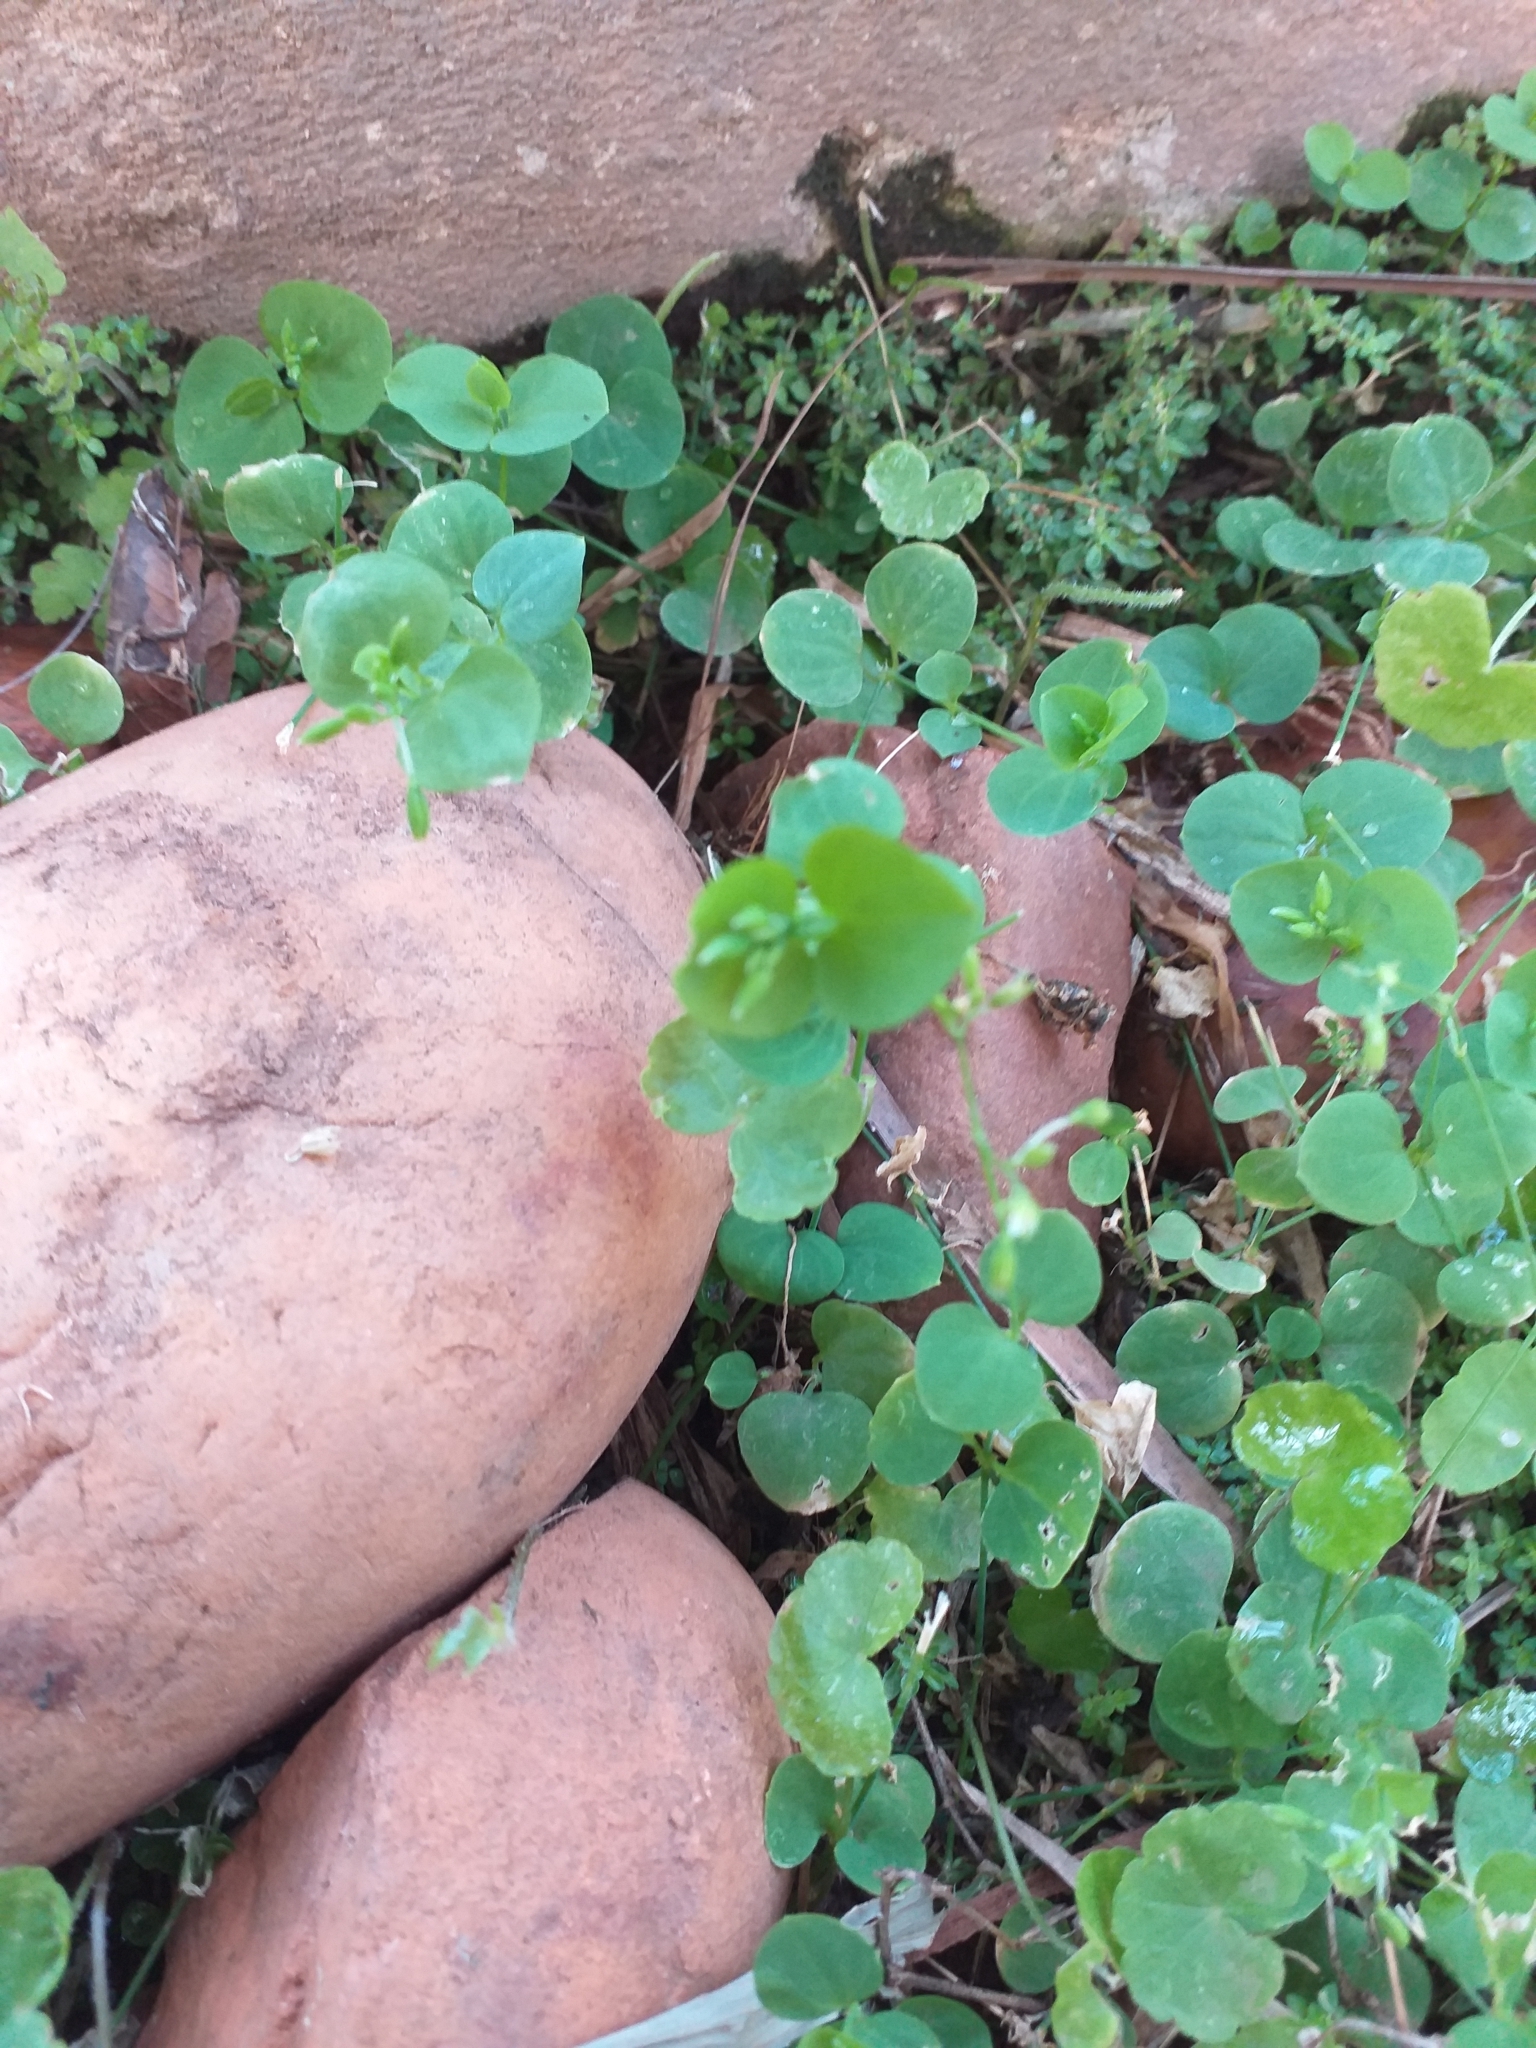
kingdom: Plantae
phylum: Tracheophyta
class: Magnoliopsida
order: Caryophyllales
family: Caryophyllaceae
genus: Drymaria
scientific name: Drymaria cordata
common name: Whitesnow
